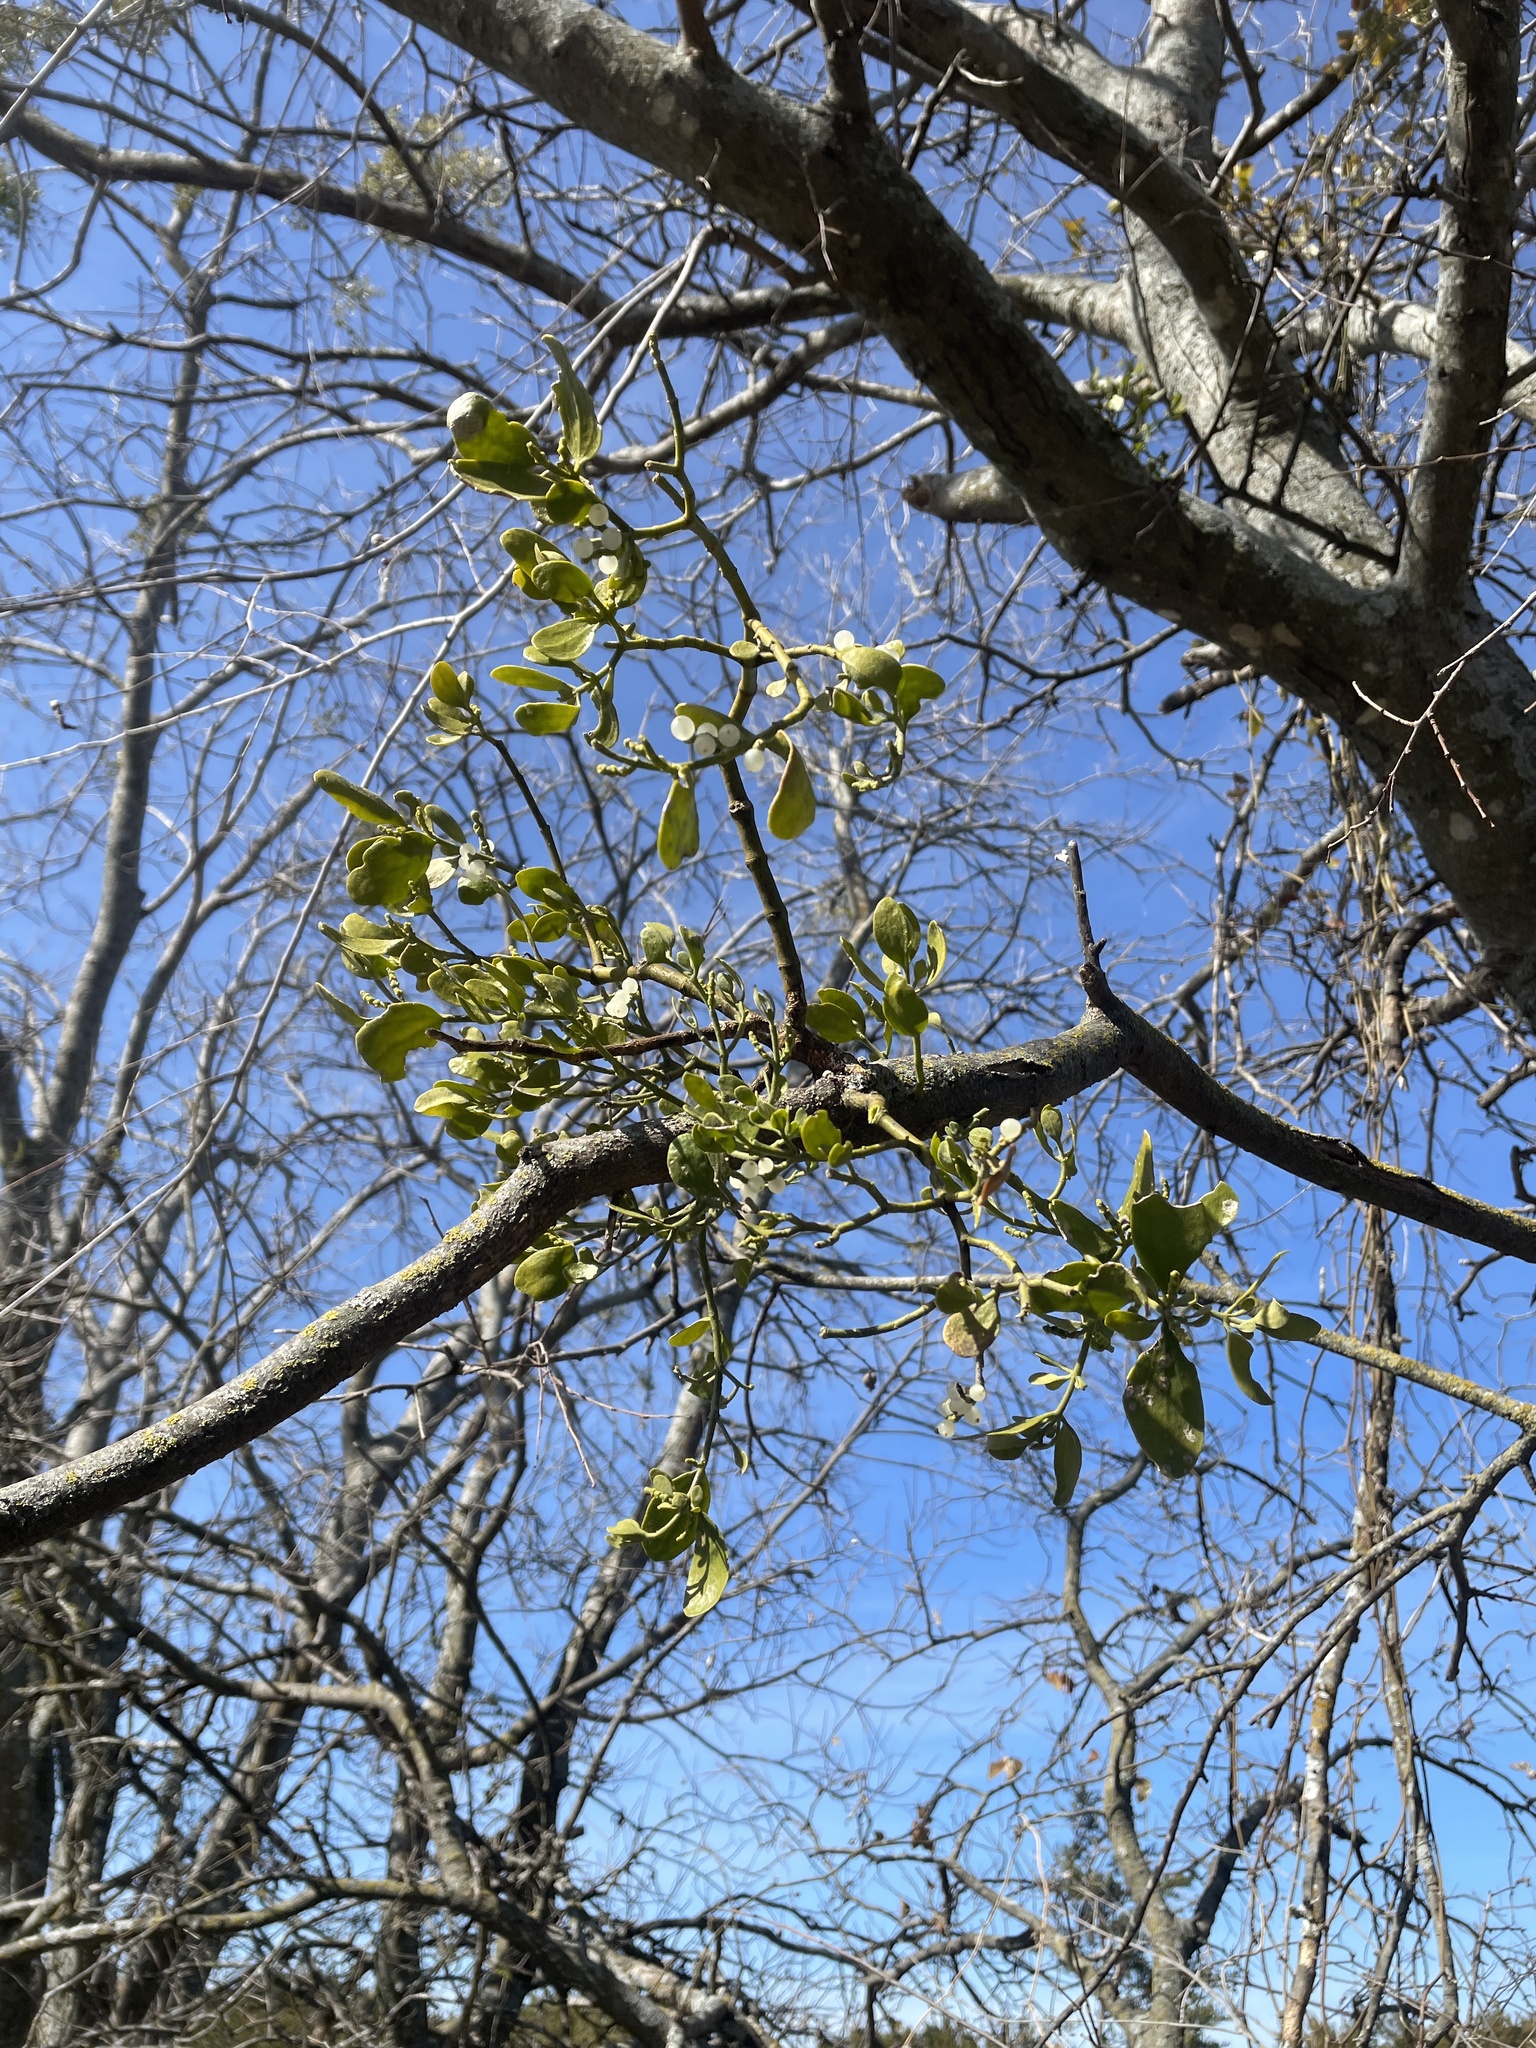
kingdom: Plantae
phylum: Tracheophyta
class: Magnoliopsida
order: Santalales
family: Viscaceae
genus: Phoradendron
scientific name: Phoradendron leucarpum
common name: Pacific mistletoe
